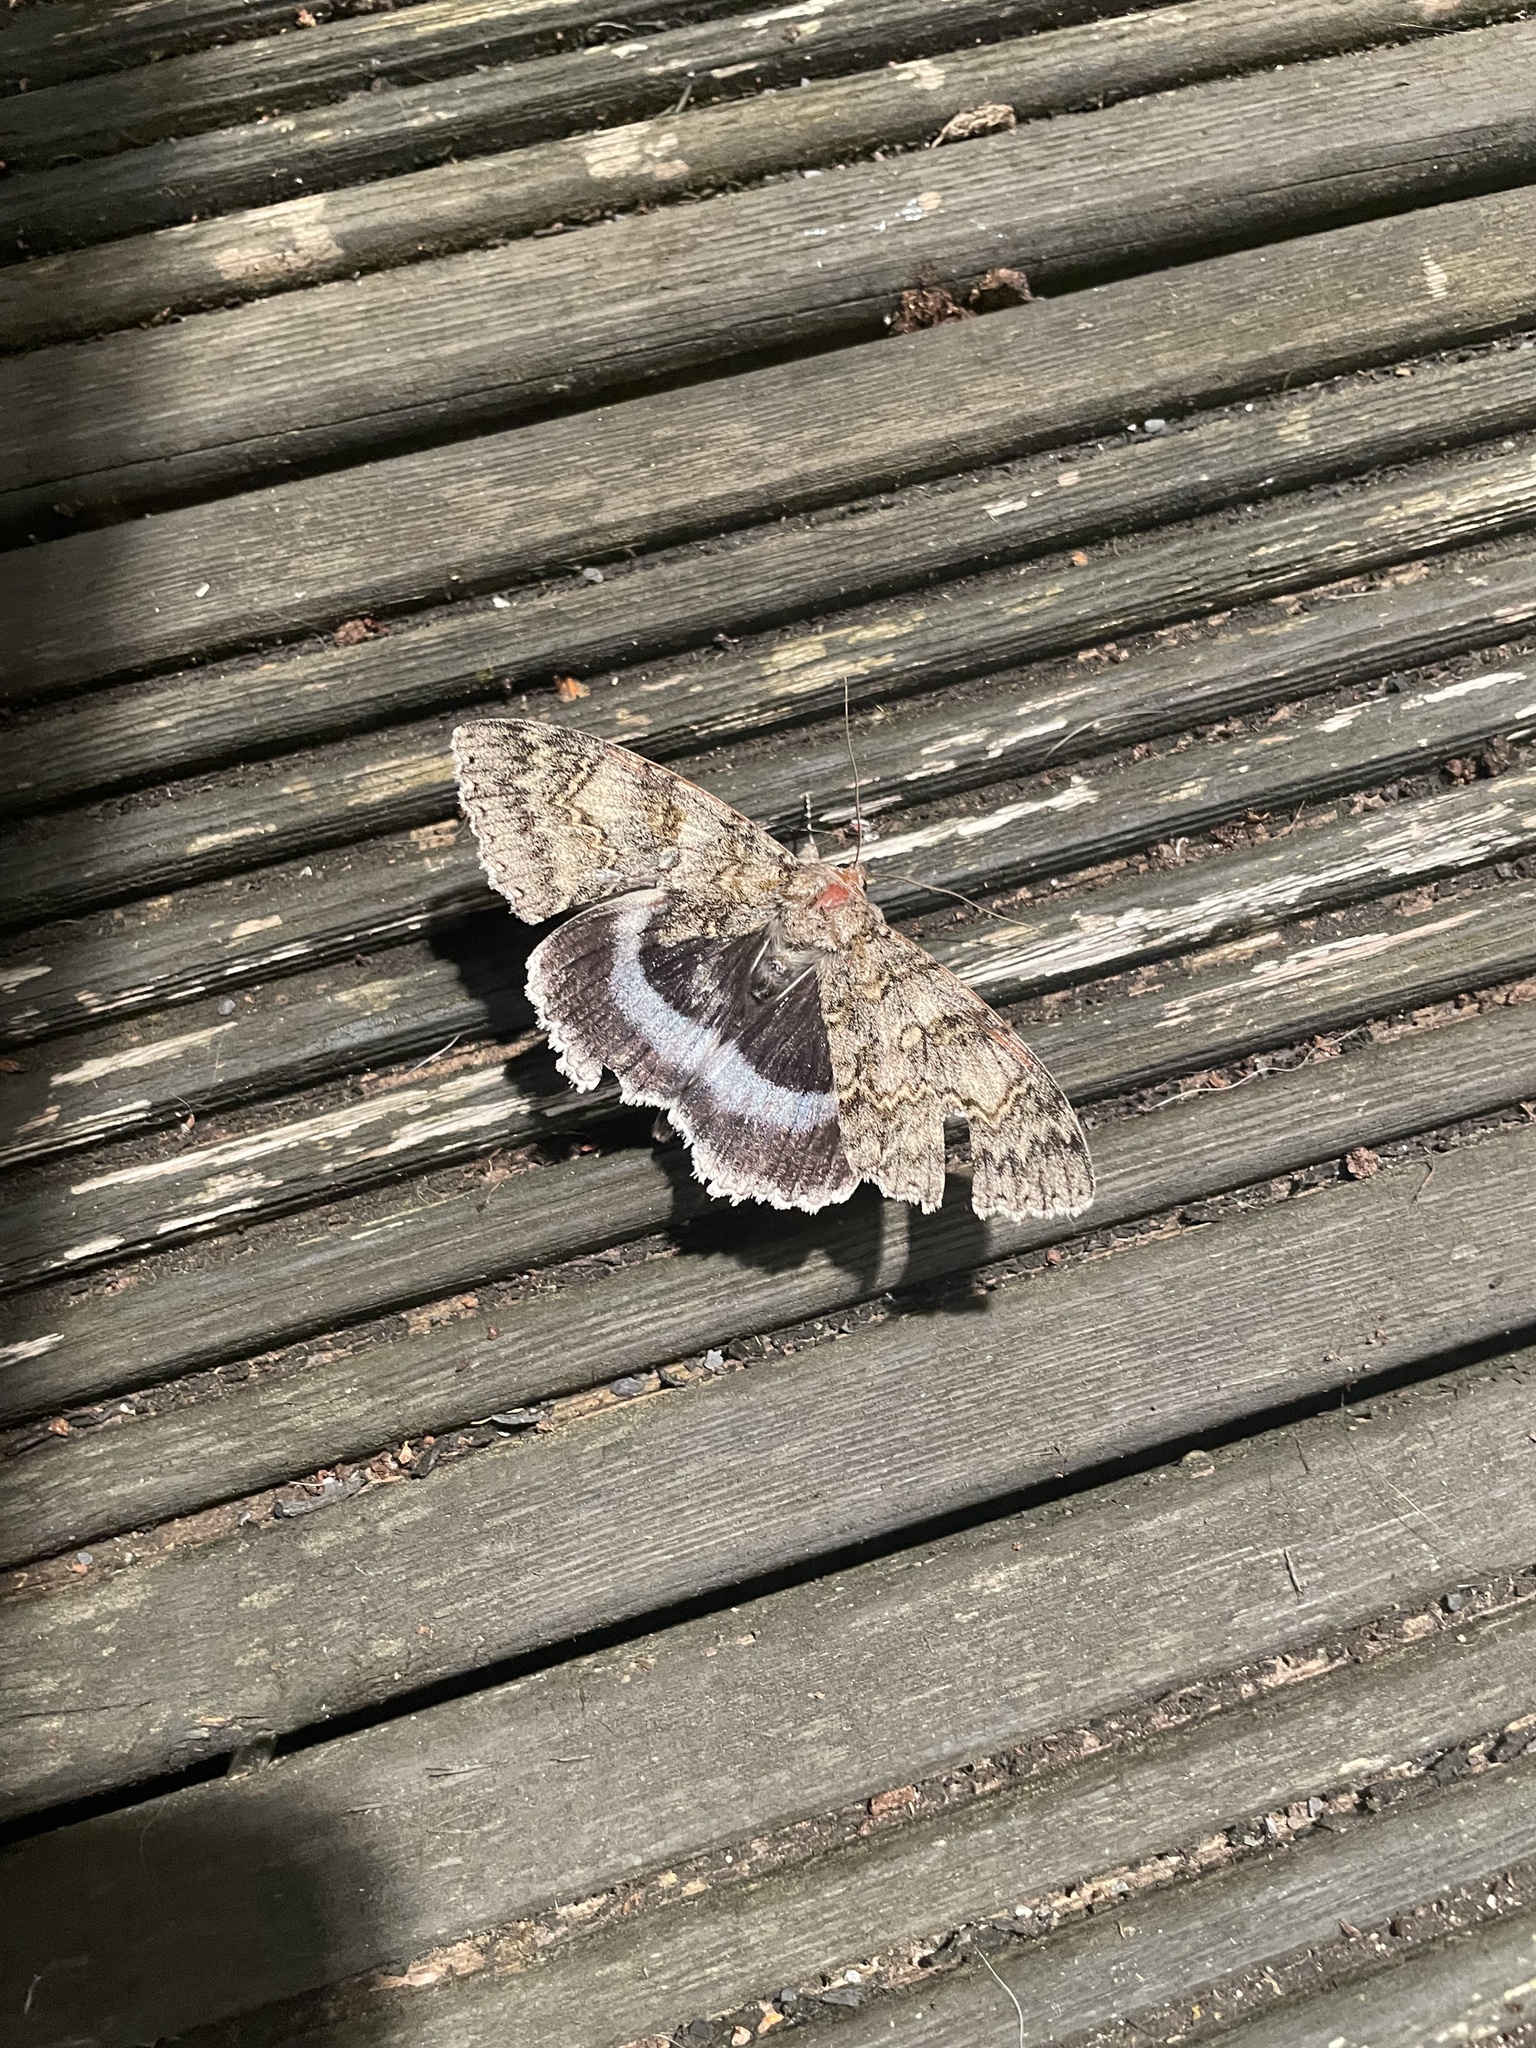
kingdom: Animalia
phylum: Arthropoda
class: Insecta
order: Lepidoptera
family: Erebidae
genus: Catocala
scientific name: Catocala fraxini
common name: Clifden nonpareil
